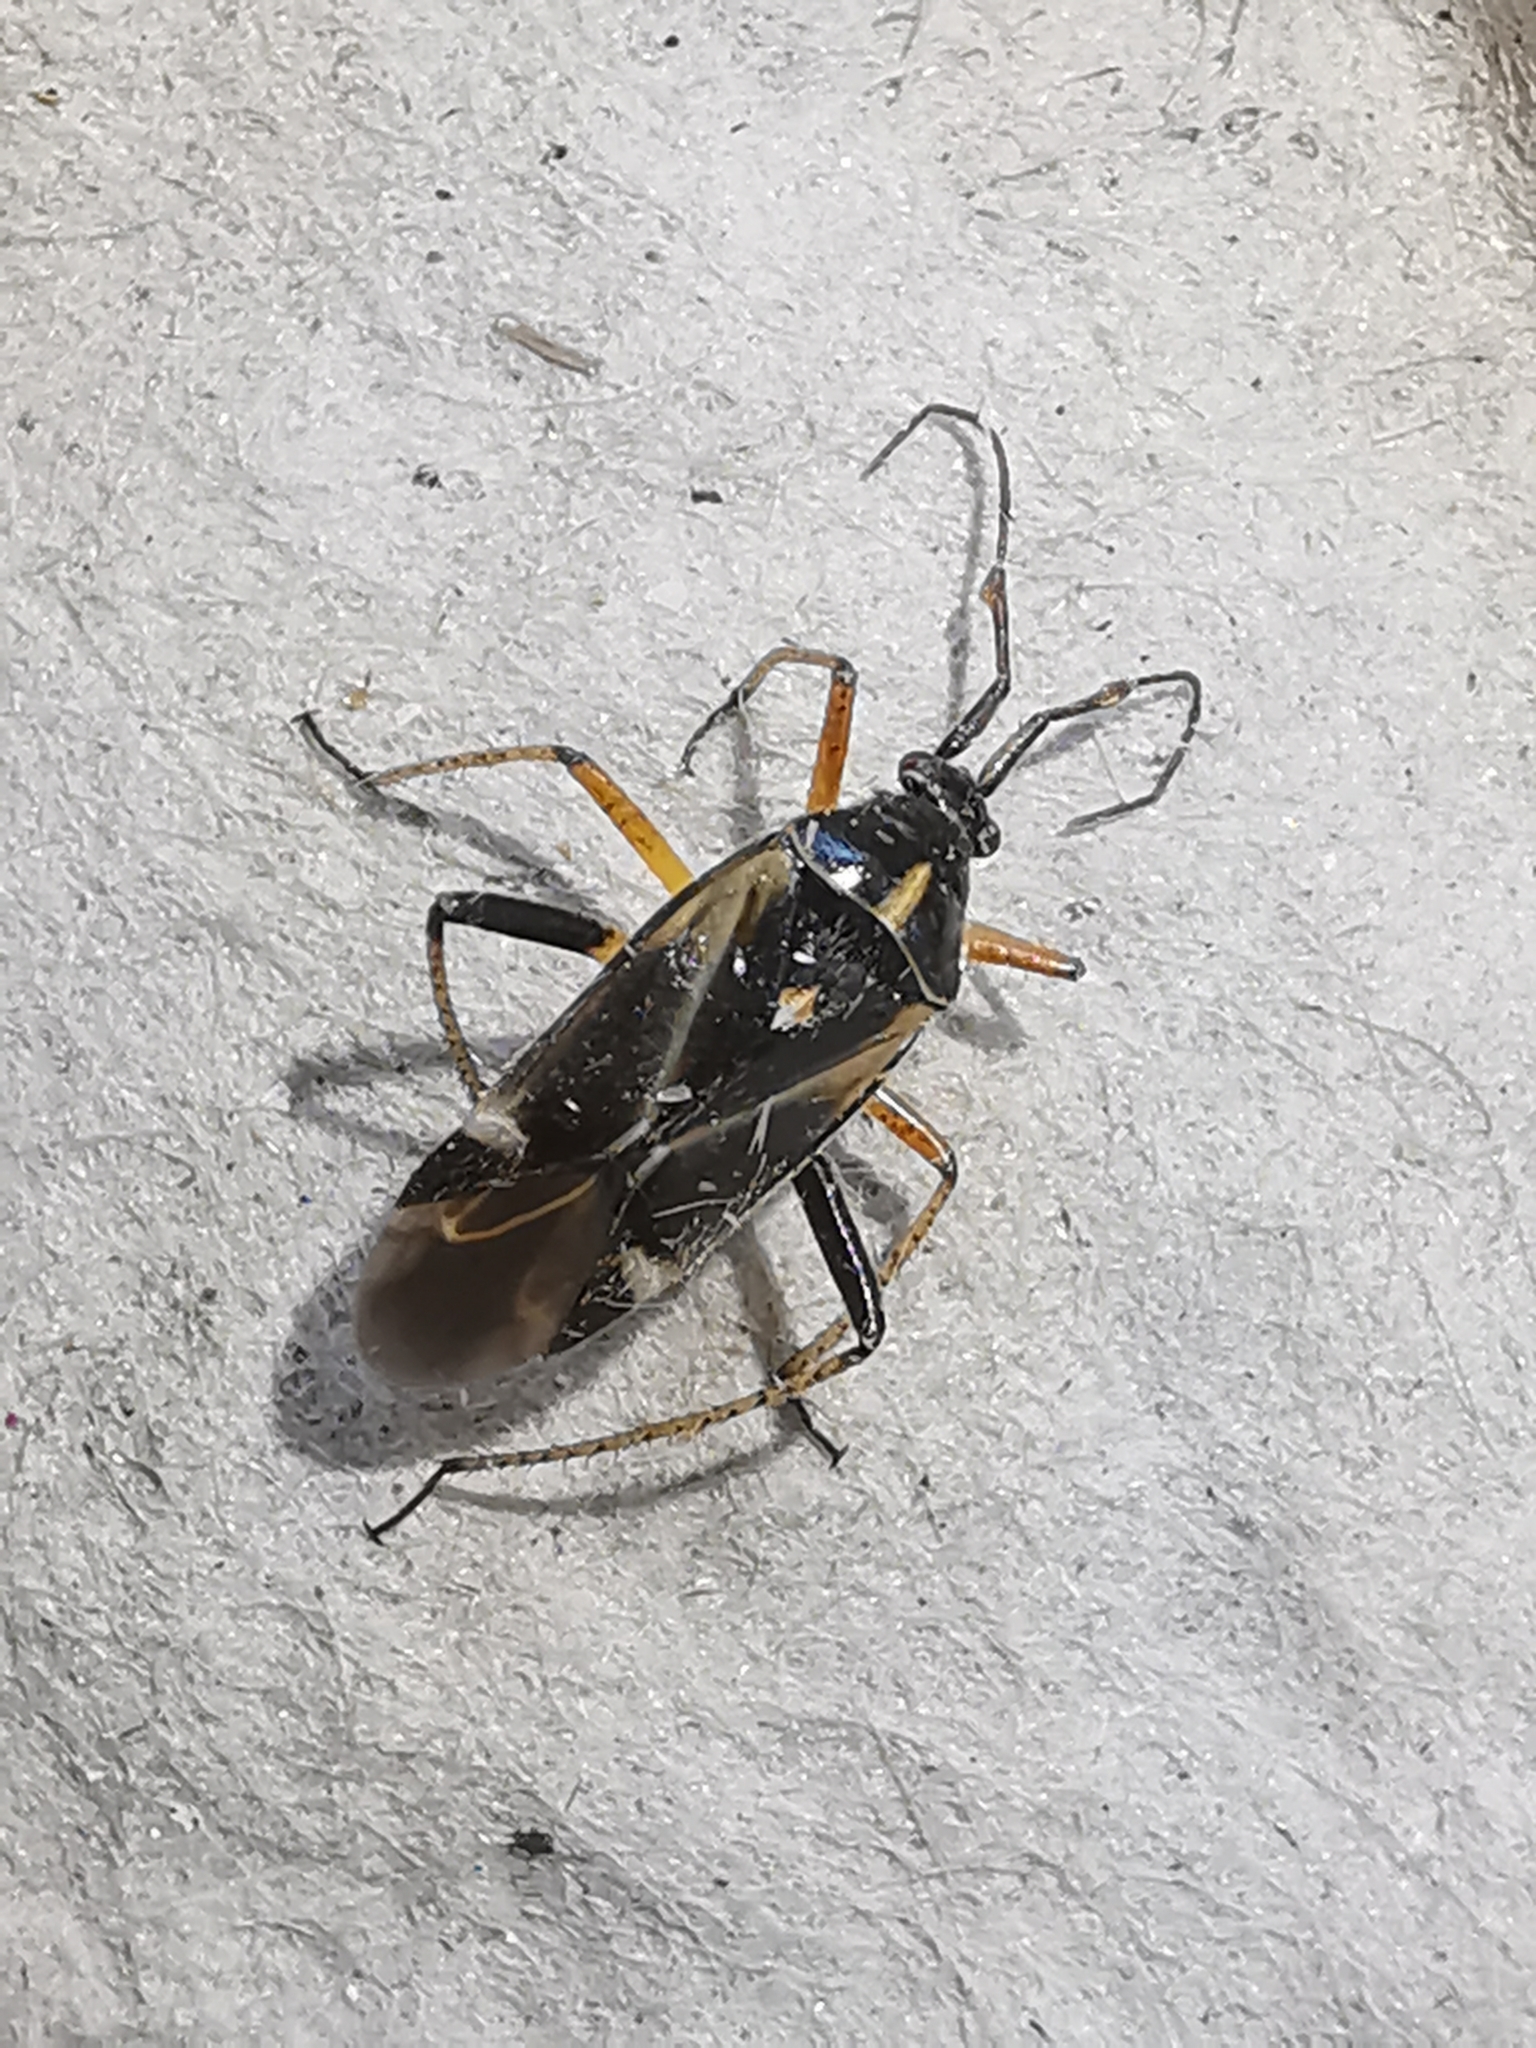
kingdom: Animalia
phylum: Arthropoda
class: Insecta
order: Hemiptera
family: Miridae
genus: Harpocera
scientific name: Harpocera thoracica
